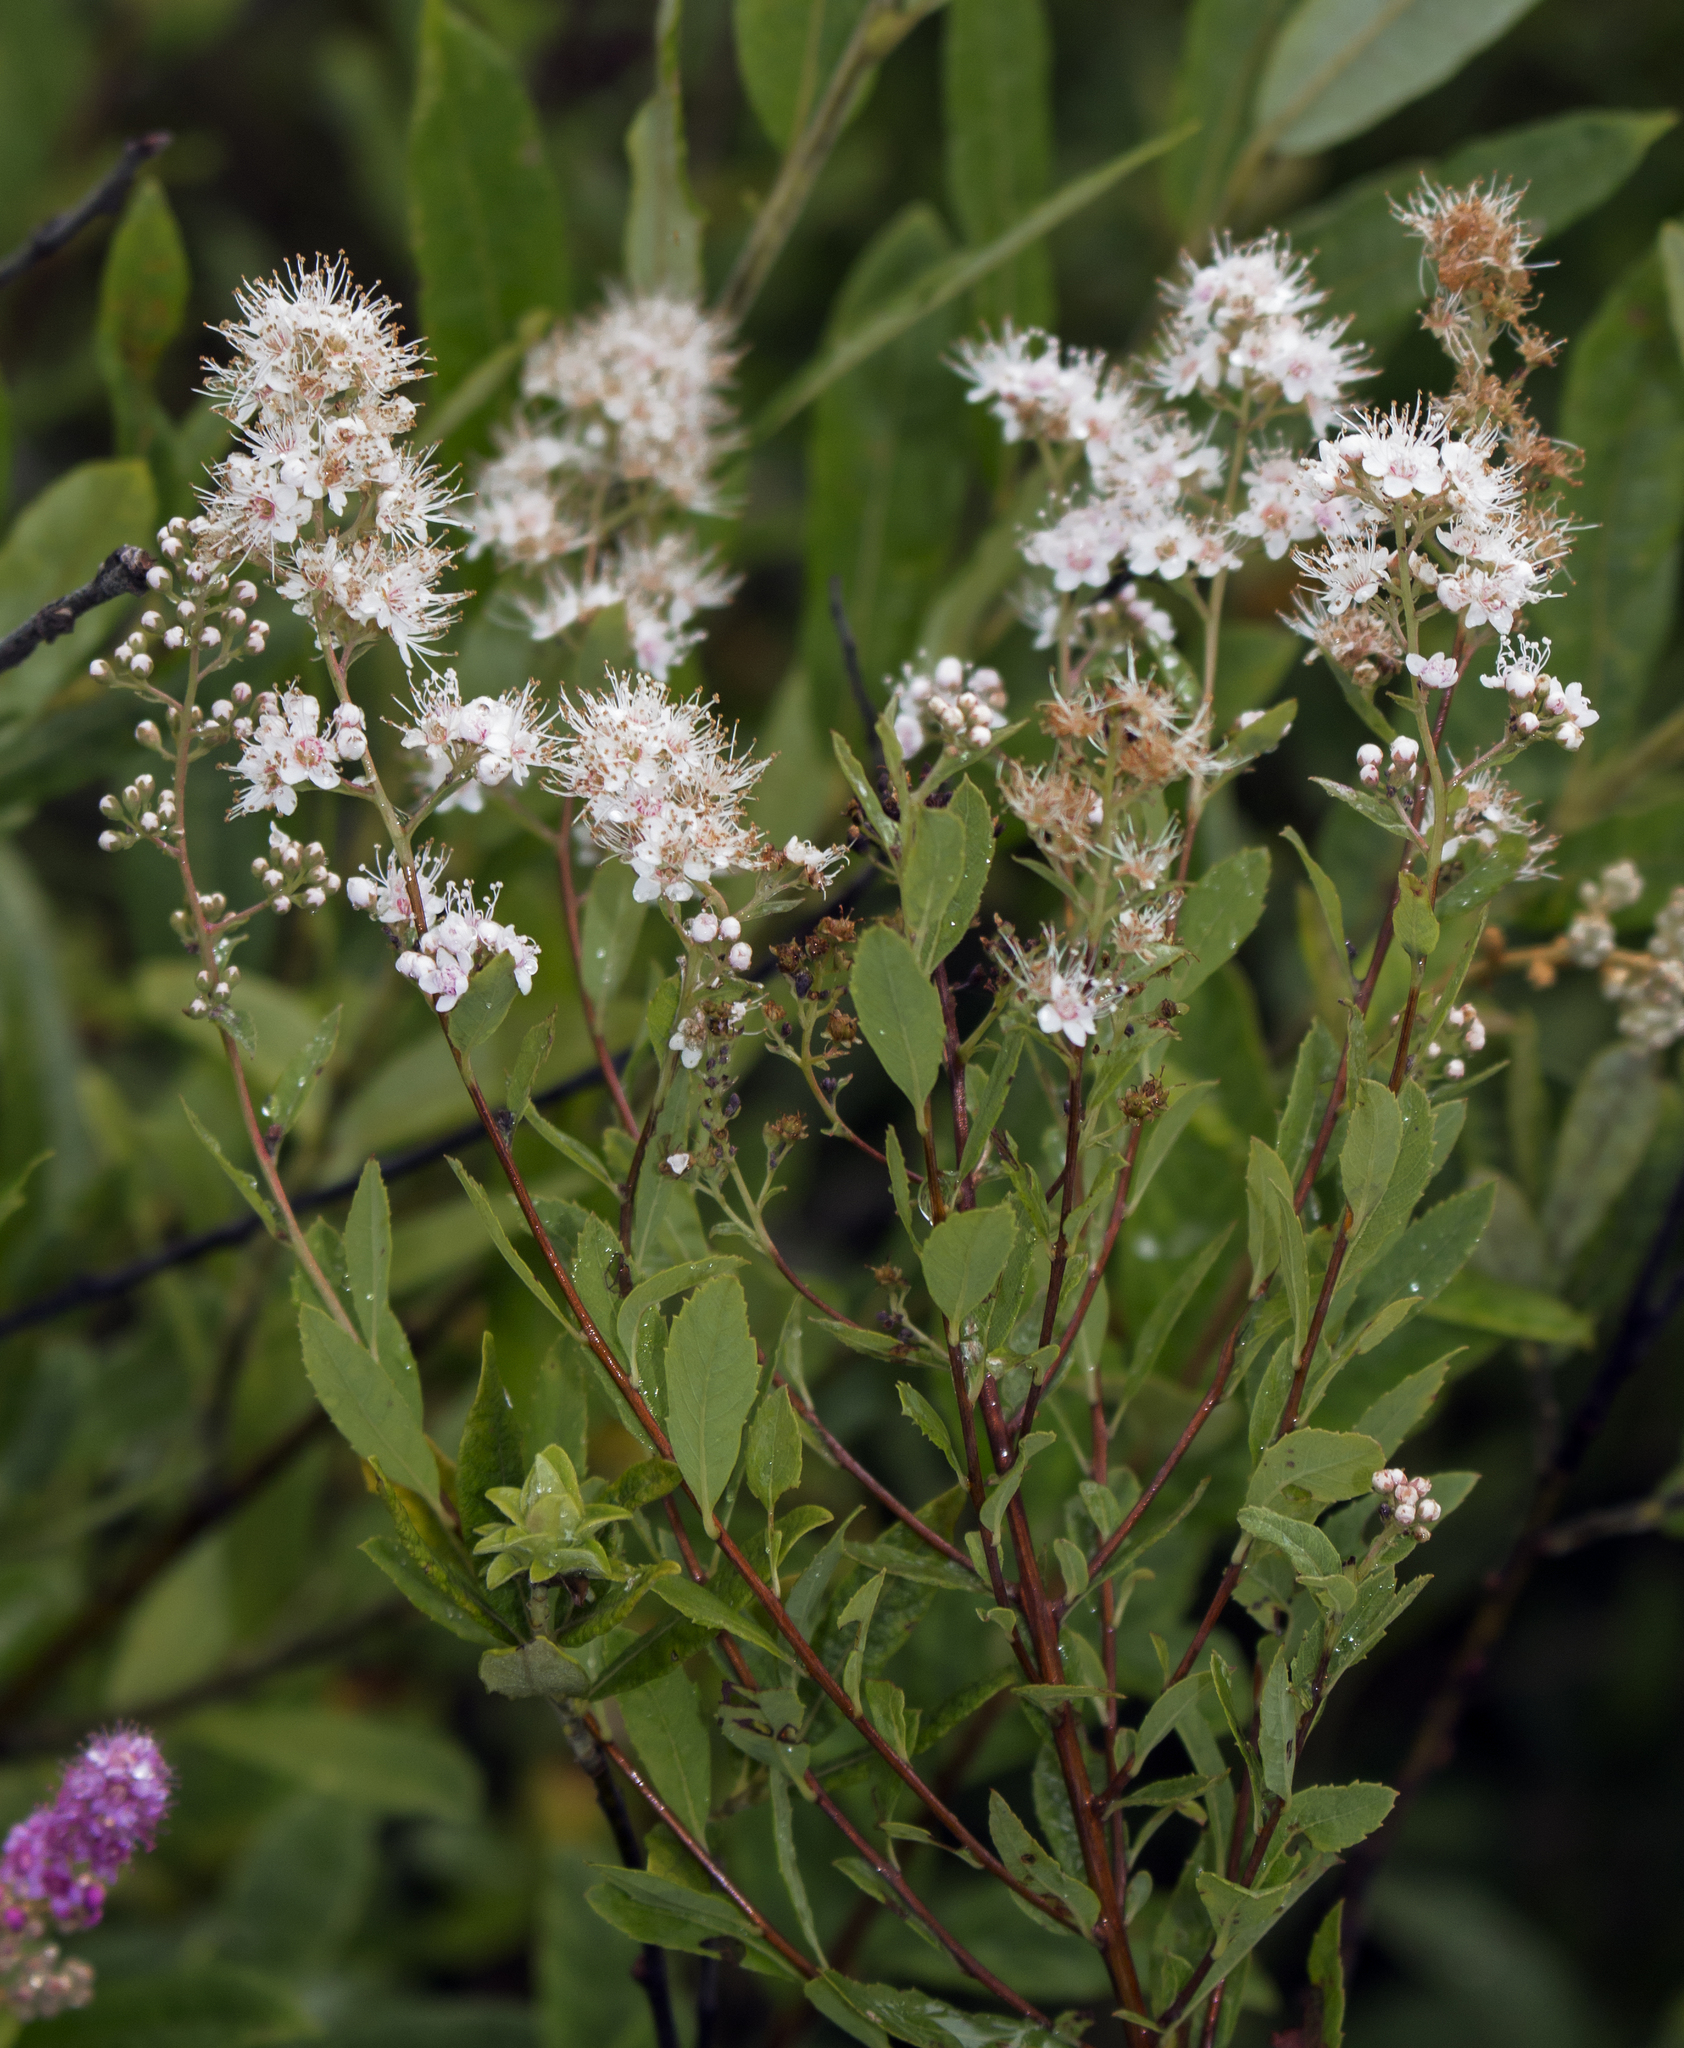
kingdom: Plantae
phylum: Tracheophyta
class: Magnoliopsida
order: Rosales
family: Rosaceae
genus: Spiraea
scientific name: Spiraea alba
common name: Pale bridewort
